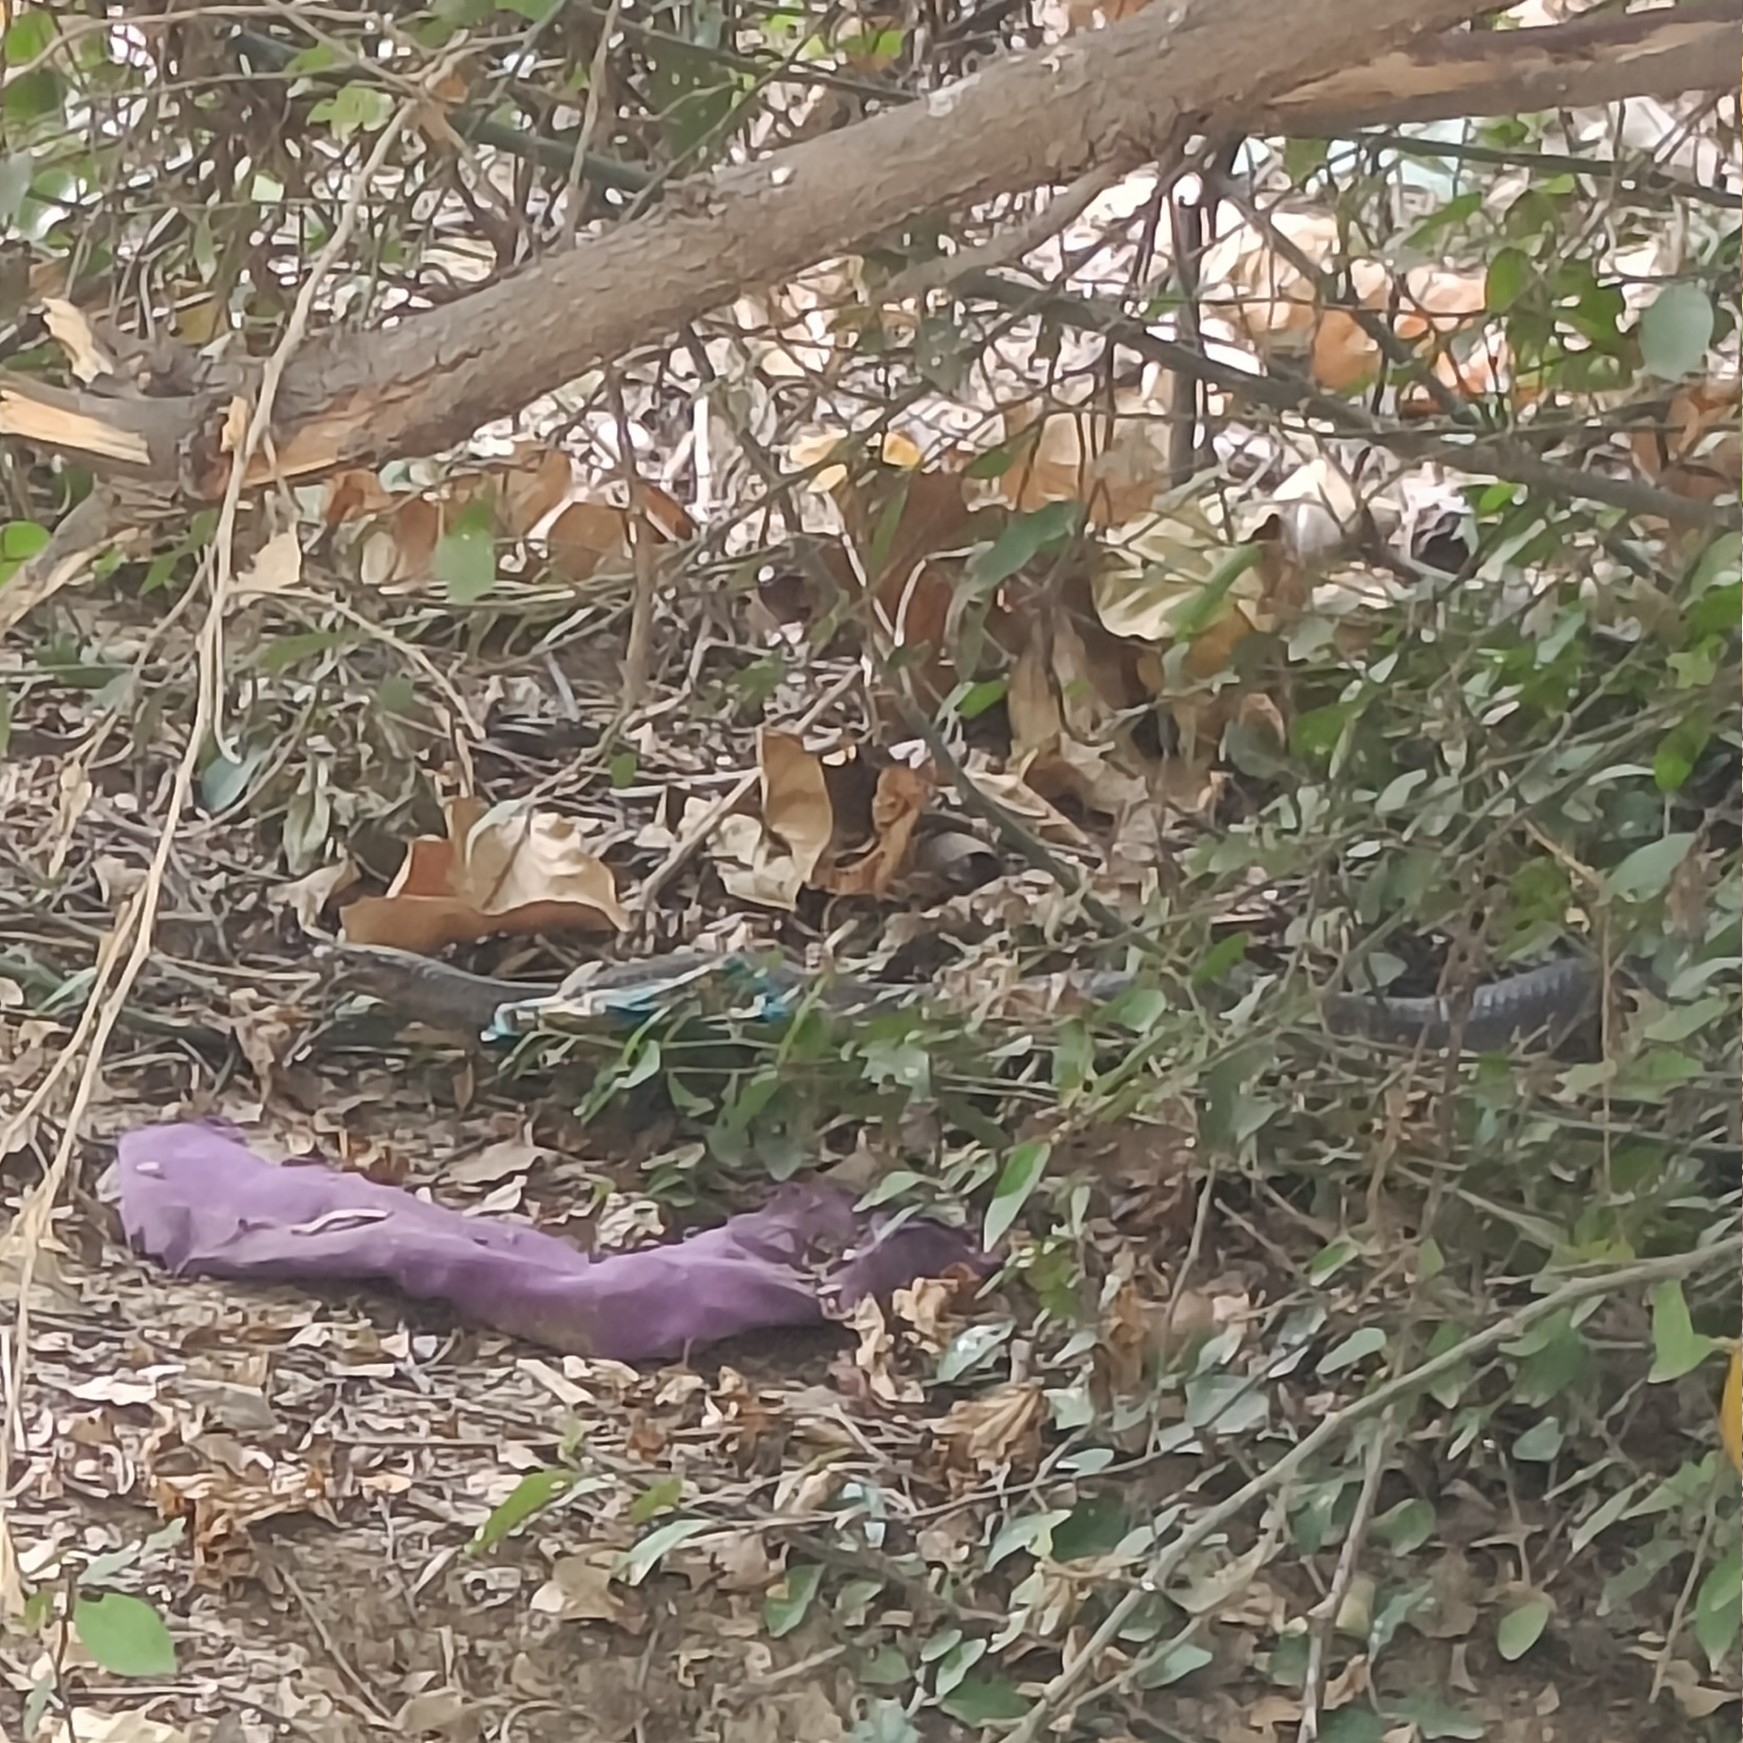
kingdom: Animalia
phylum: Chordata
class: Squamata
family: Elapidae
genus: Naja
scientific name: Naja naja
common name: Indian cobra
